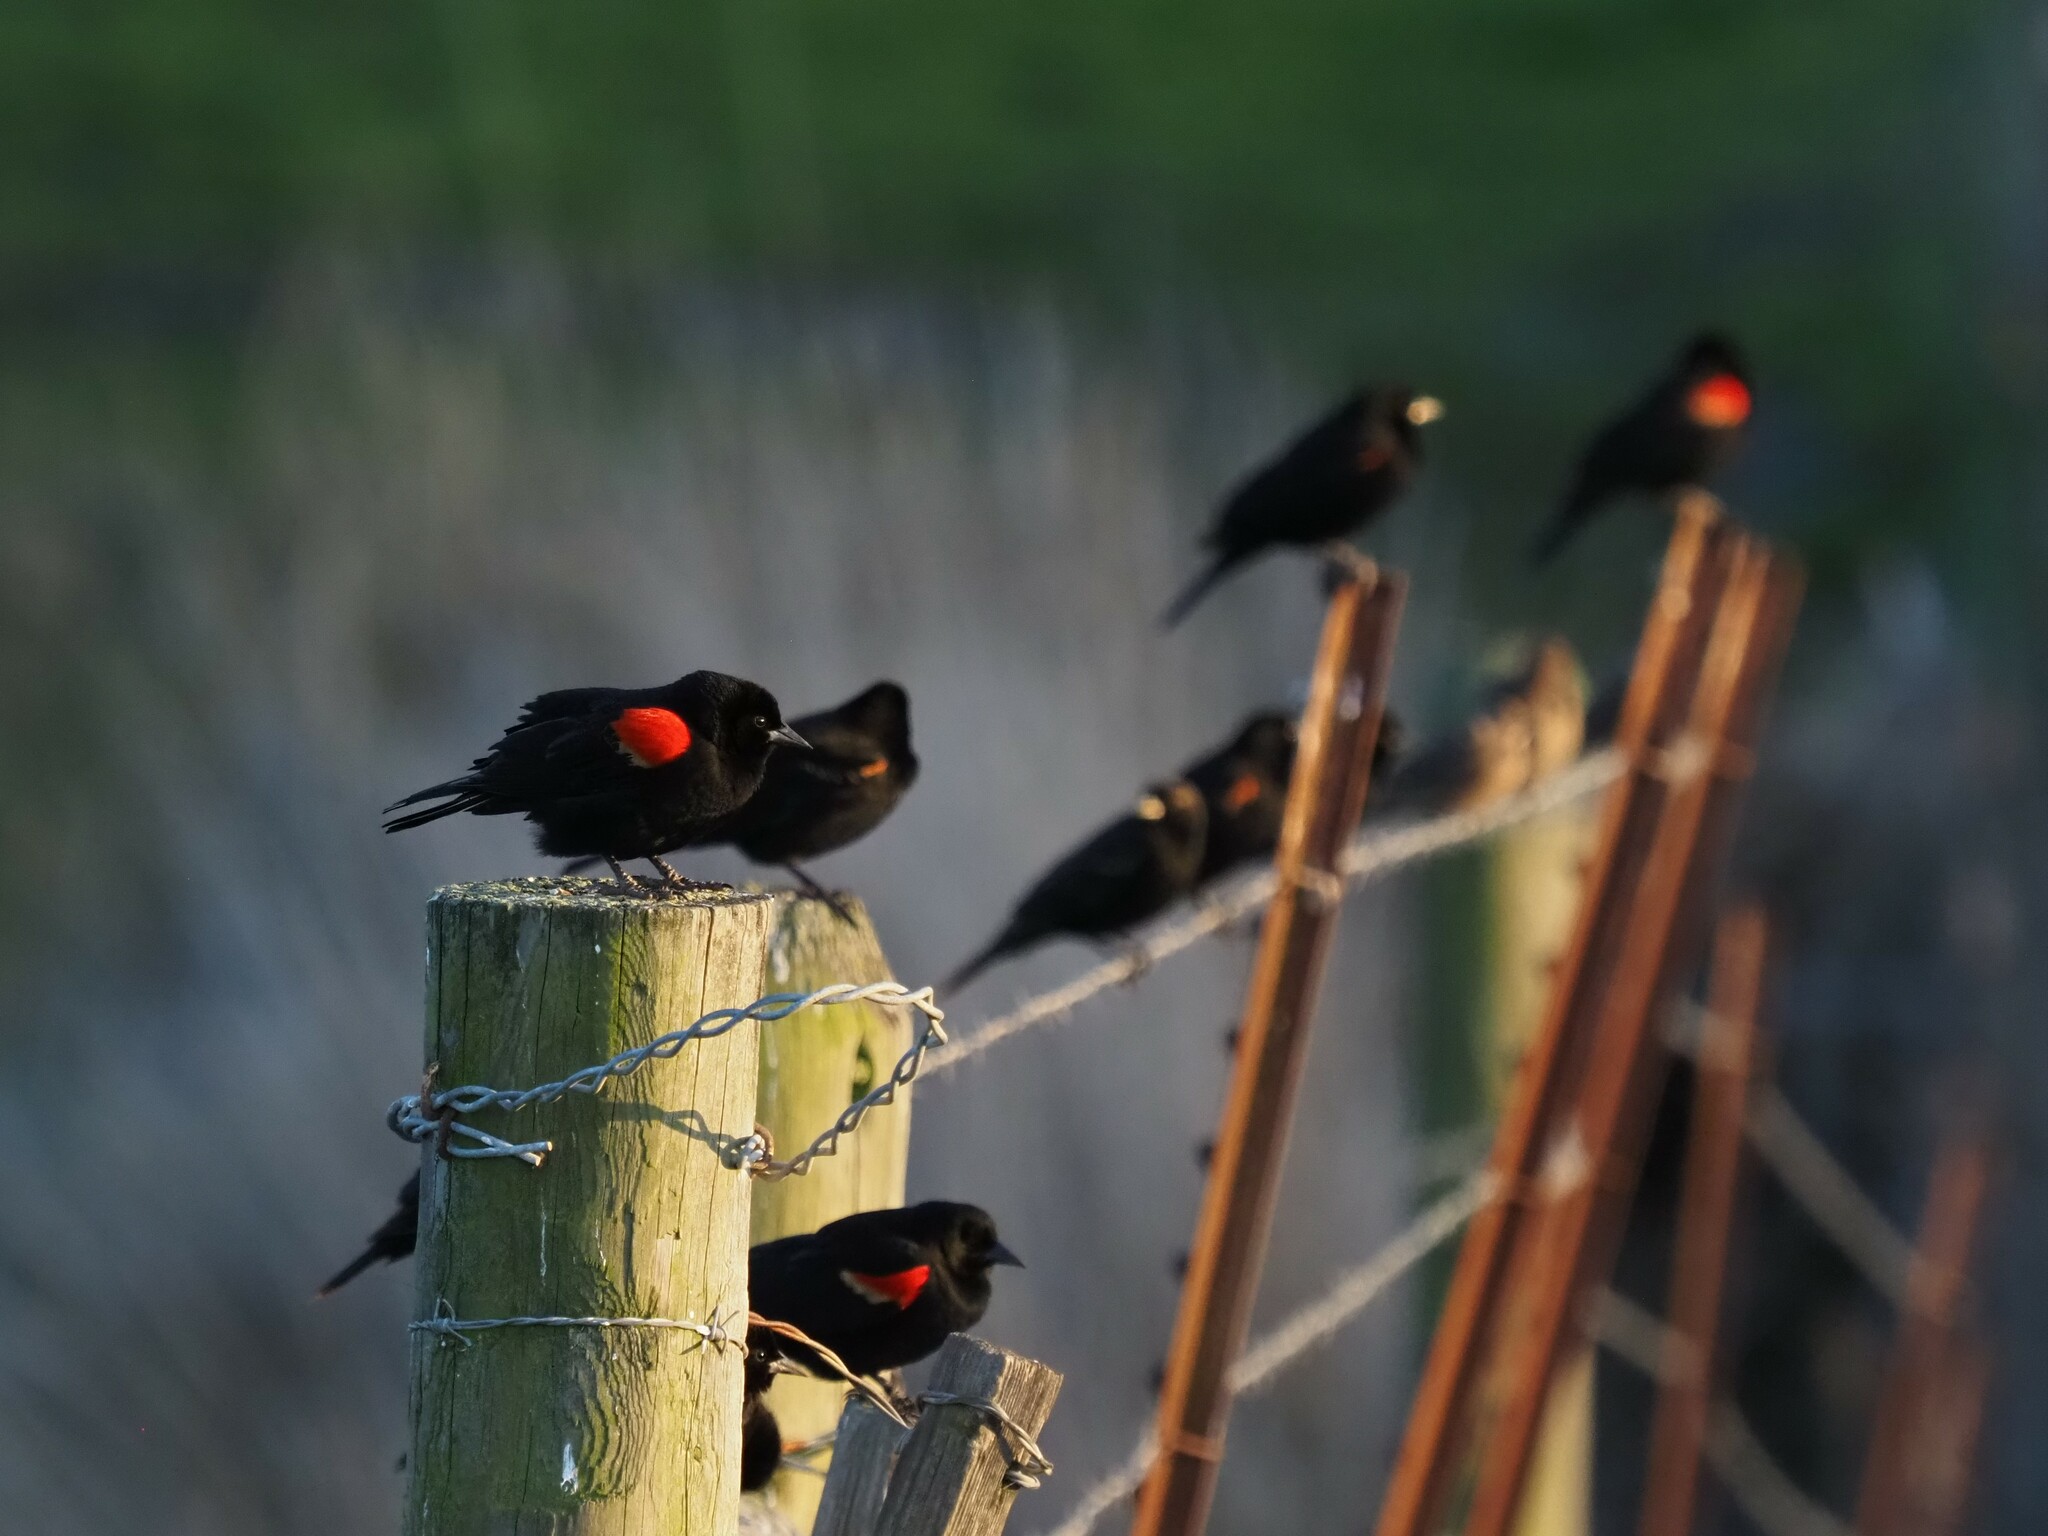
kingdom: Animalia
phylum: Chordata
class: Aves
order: Passeriformes
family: Icteridae
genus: Agelaius
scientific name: Agelaius phoeniceus
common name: Red-winged blackbird
